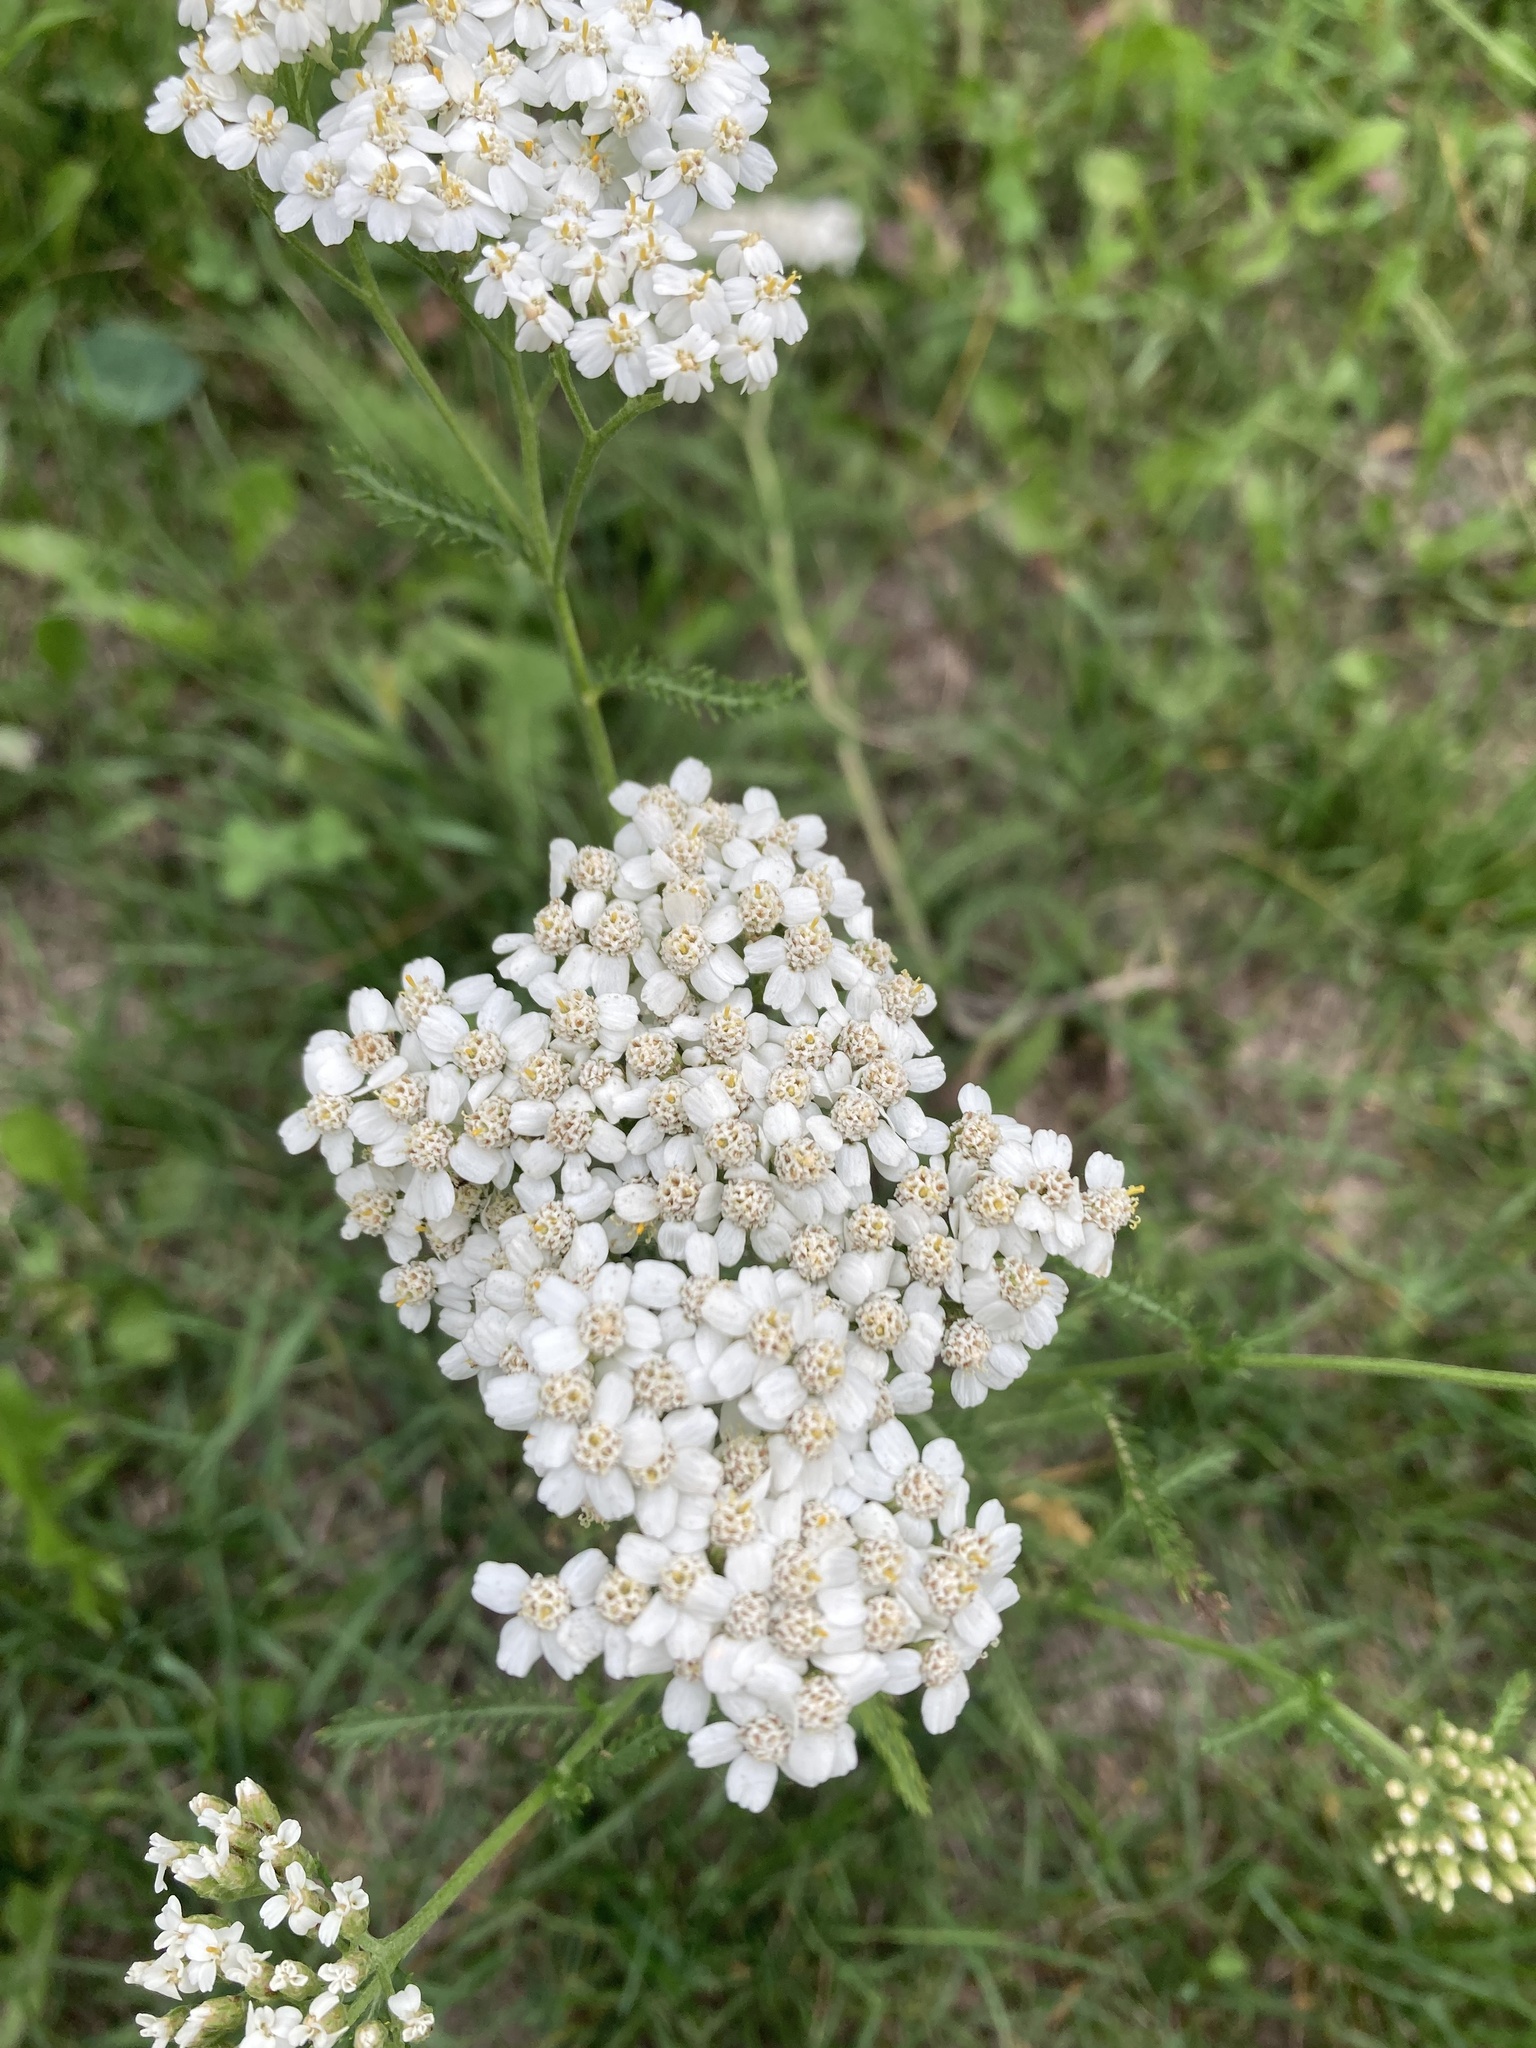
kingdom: Plantae
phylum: Tracheophyta
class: Magnoliopsida
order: Asterales
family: Asteraceae
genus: Achillea
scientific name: Achillea millefolium
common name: Yarrow
